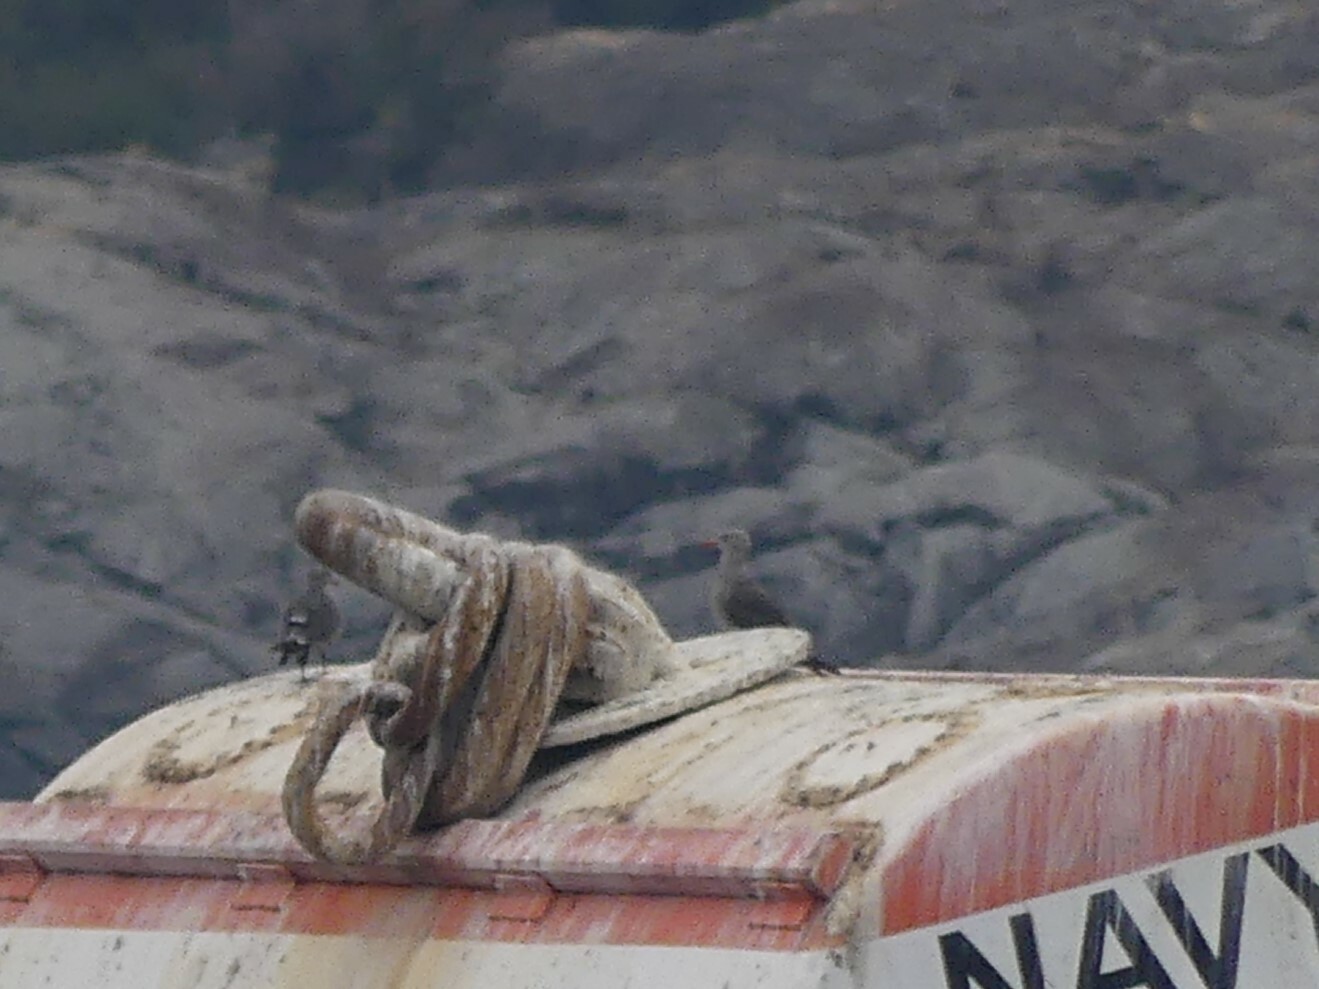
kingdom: Animalia
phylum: Chordata
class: Aves
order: Charadriiformes
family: Laridae
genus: Larus
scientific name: Larus heermanni
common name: Heermann's gull
